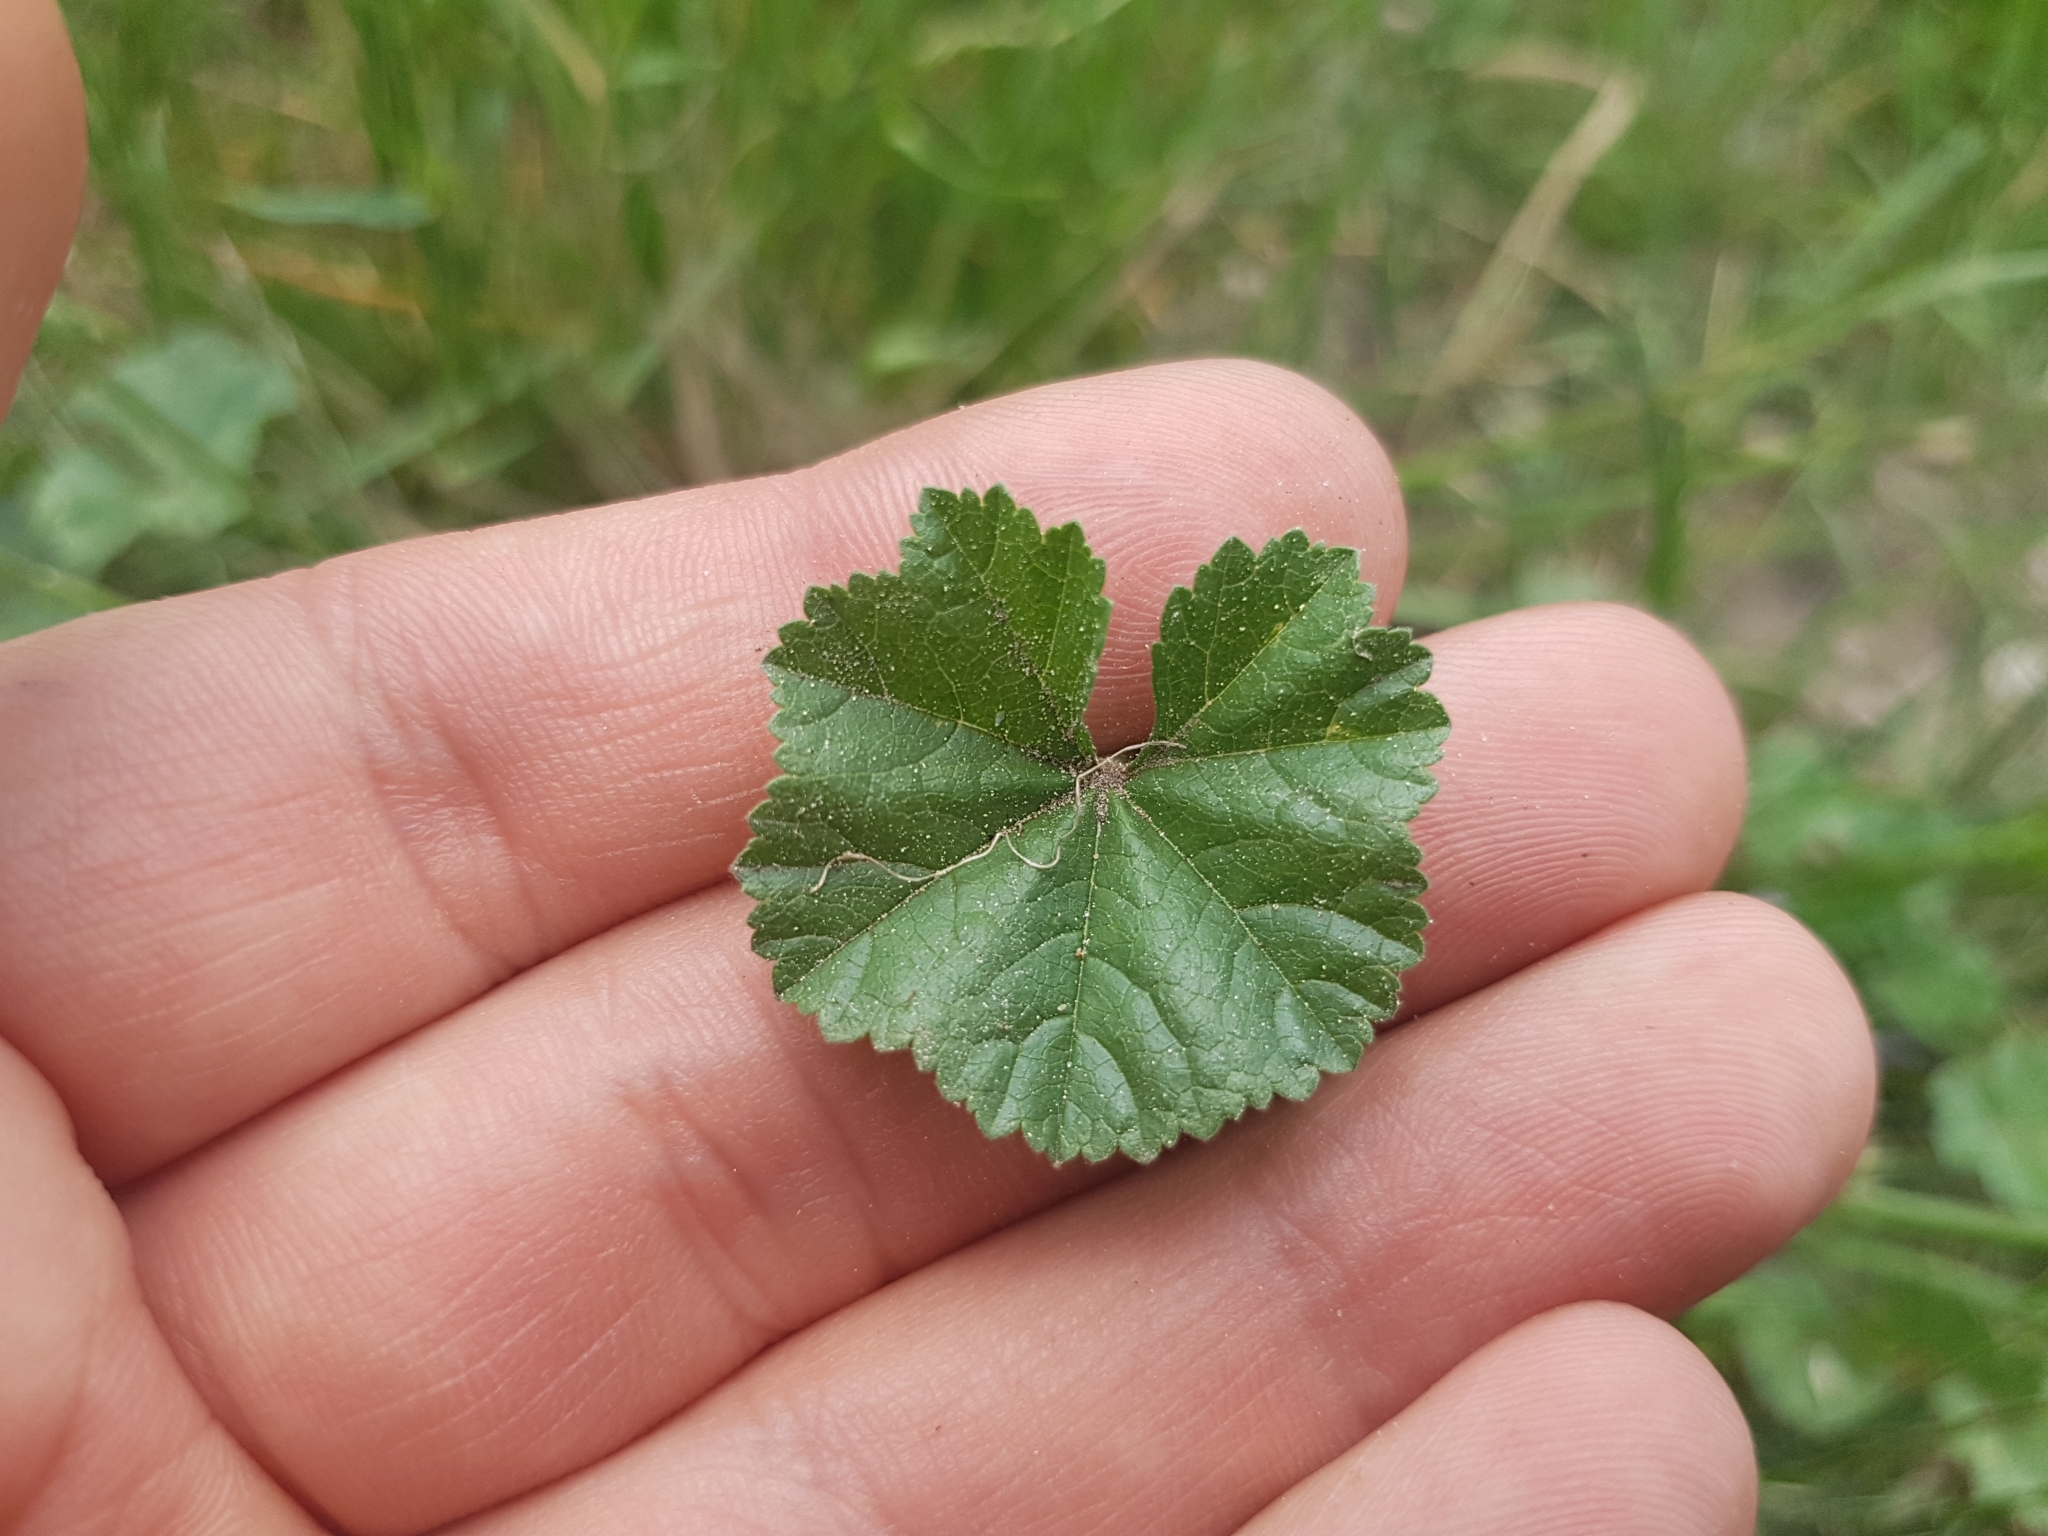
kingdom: Plantae
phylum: Tracheophyta
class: Magnoliopsida
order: Malvales
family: Malvaceae
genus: Malva
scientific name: Malva neglecta
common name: Common mallow
